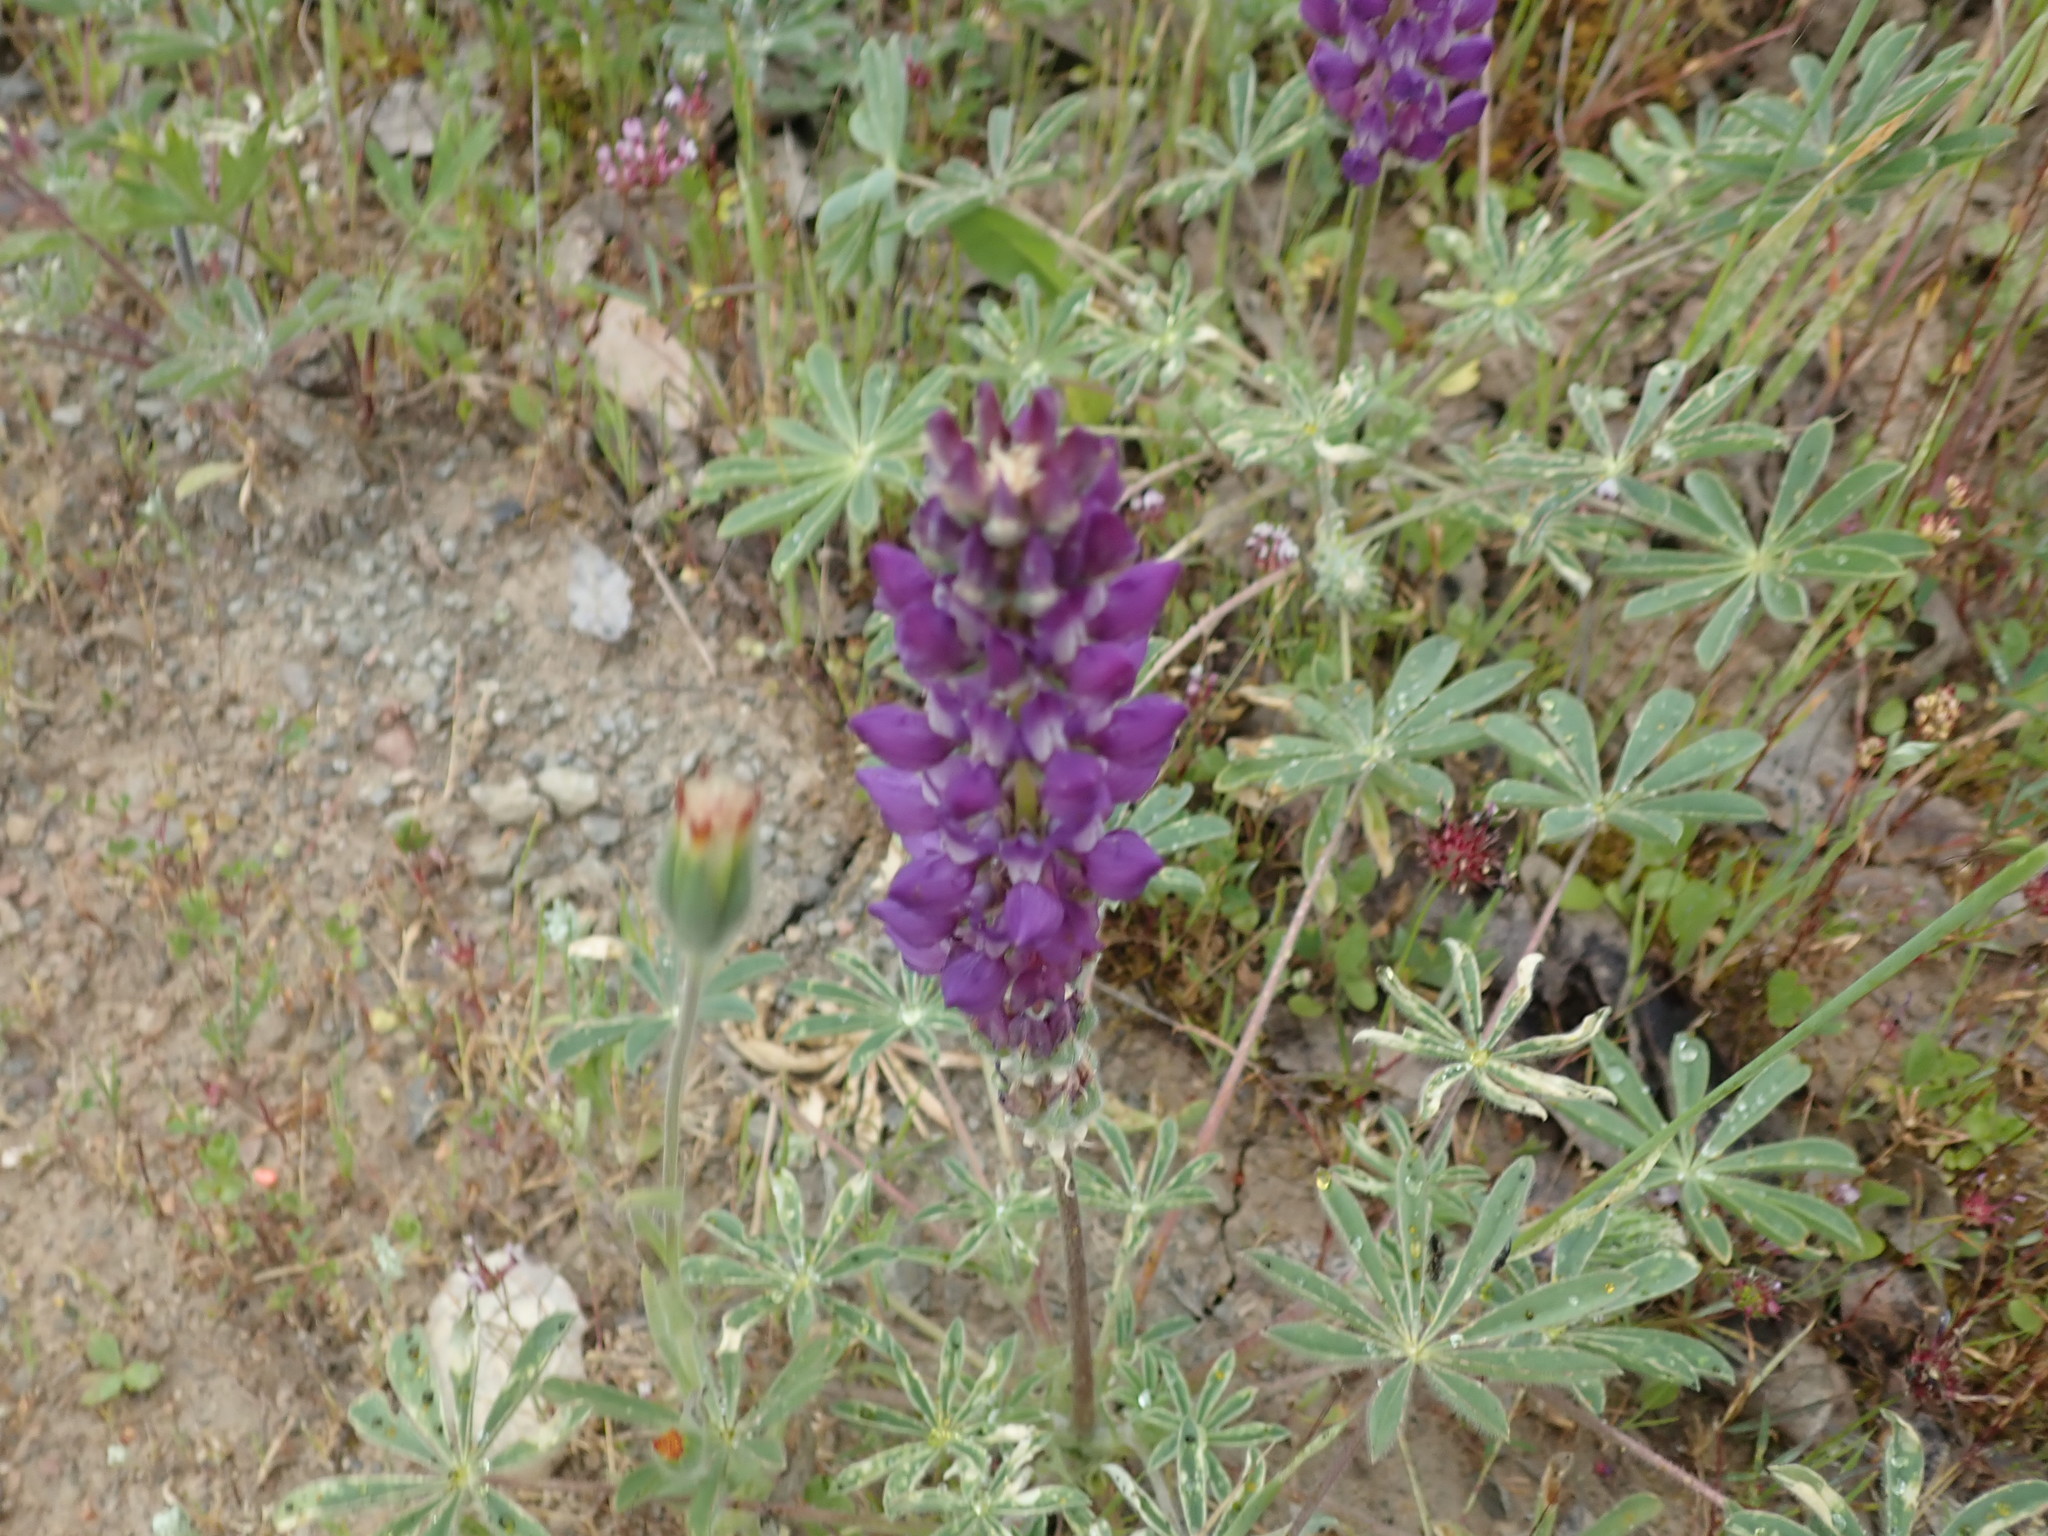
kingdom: Plantae
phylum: Tracheophyta
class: Magnoliopsida
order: Fabales
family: Fabaceae
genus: Lupinus
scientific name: Lupinus microcarpus
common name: Chick lupine
